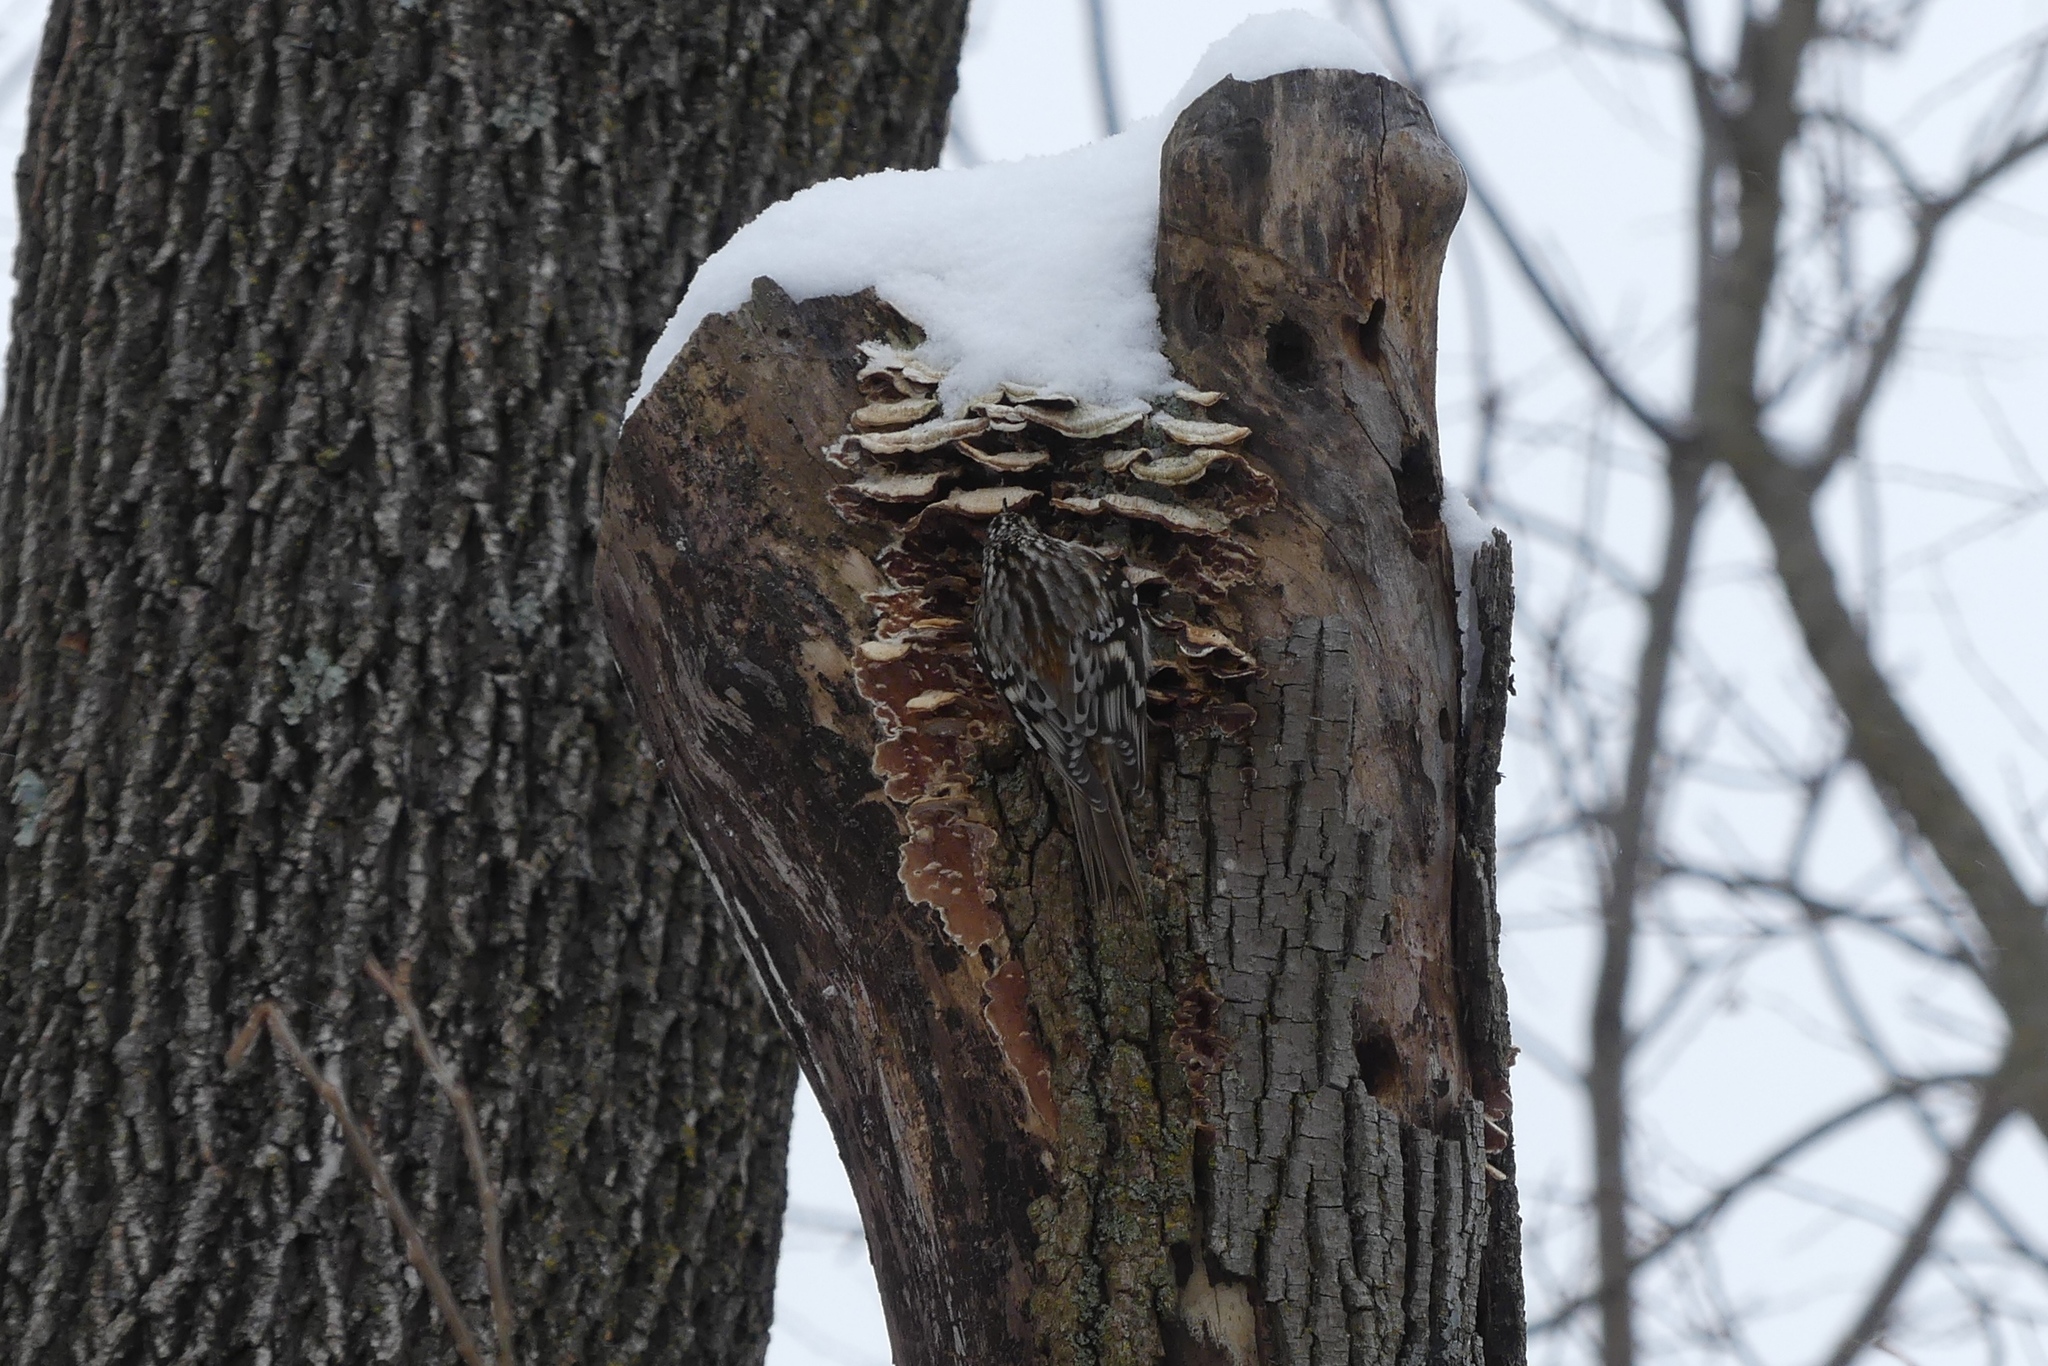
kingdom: Animalia
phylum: Chordata
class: Aves
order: Passeriformes
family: Certhiidae
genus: Certhia
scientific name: Certhia americana
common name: Brown creeper
